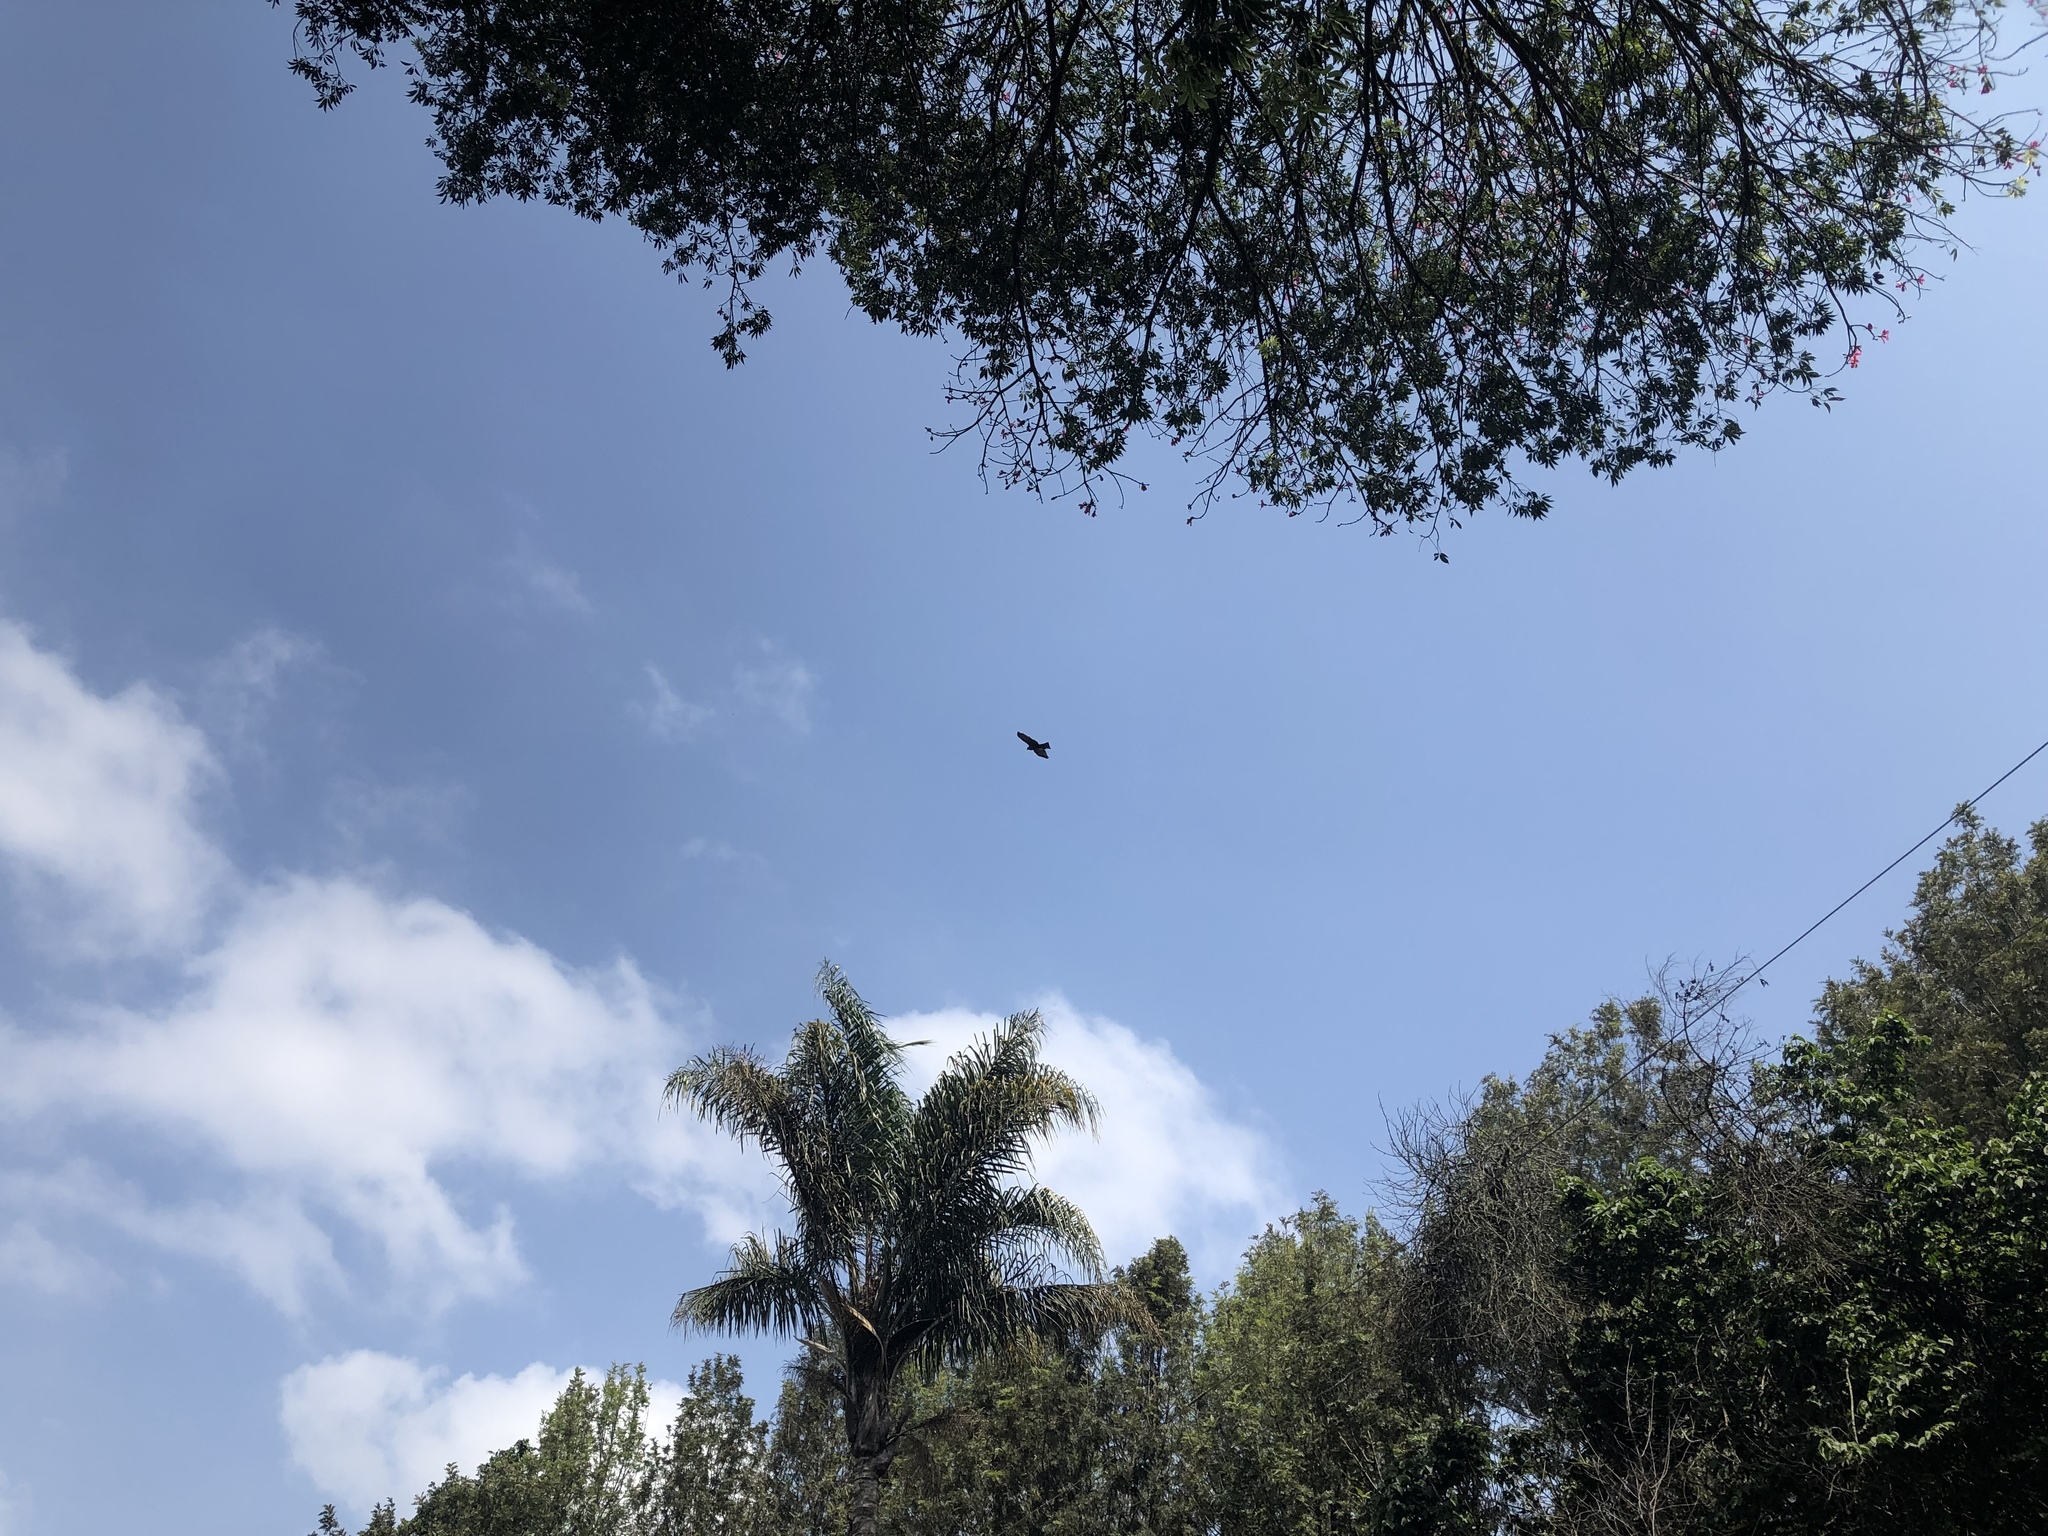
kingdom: Animalia
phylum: Chordata
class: Aves
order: Accipitriformes
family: Accipitridae
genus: Milvus
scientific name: Milvus migrans
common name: Black kite
